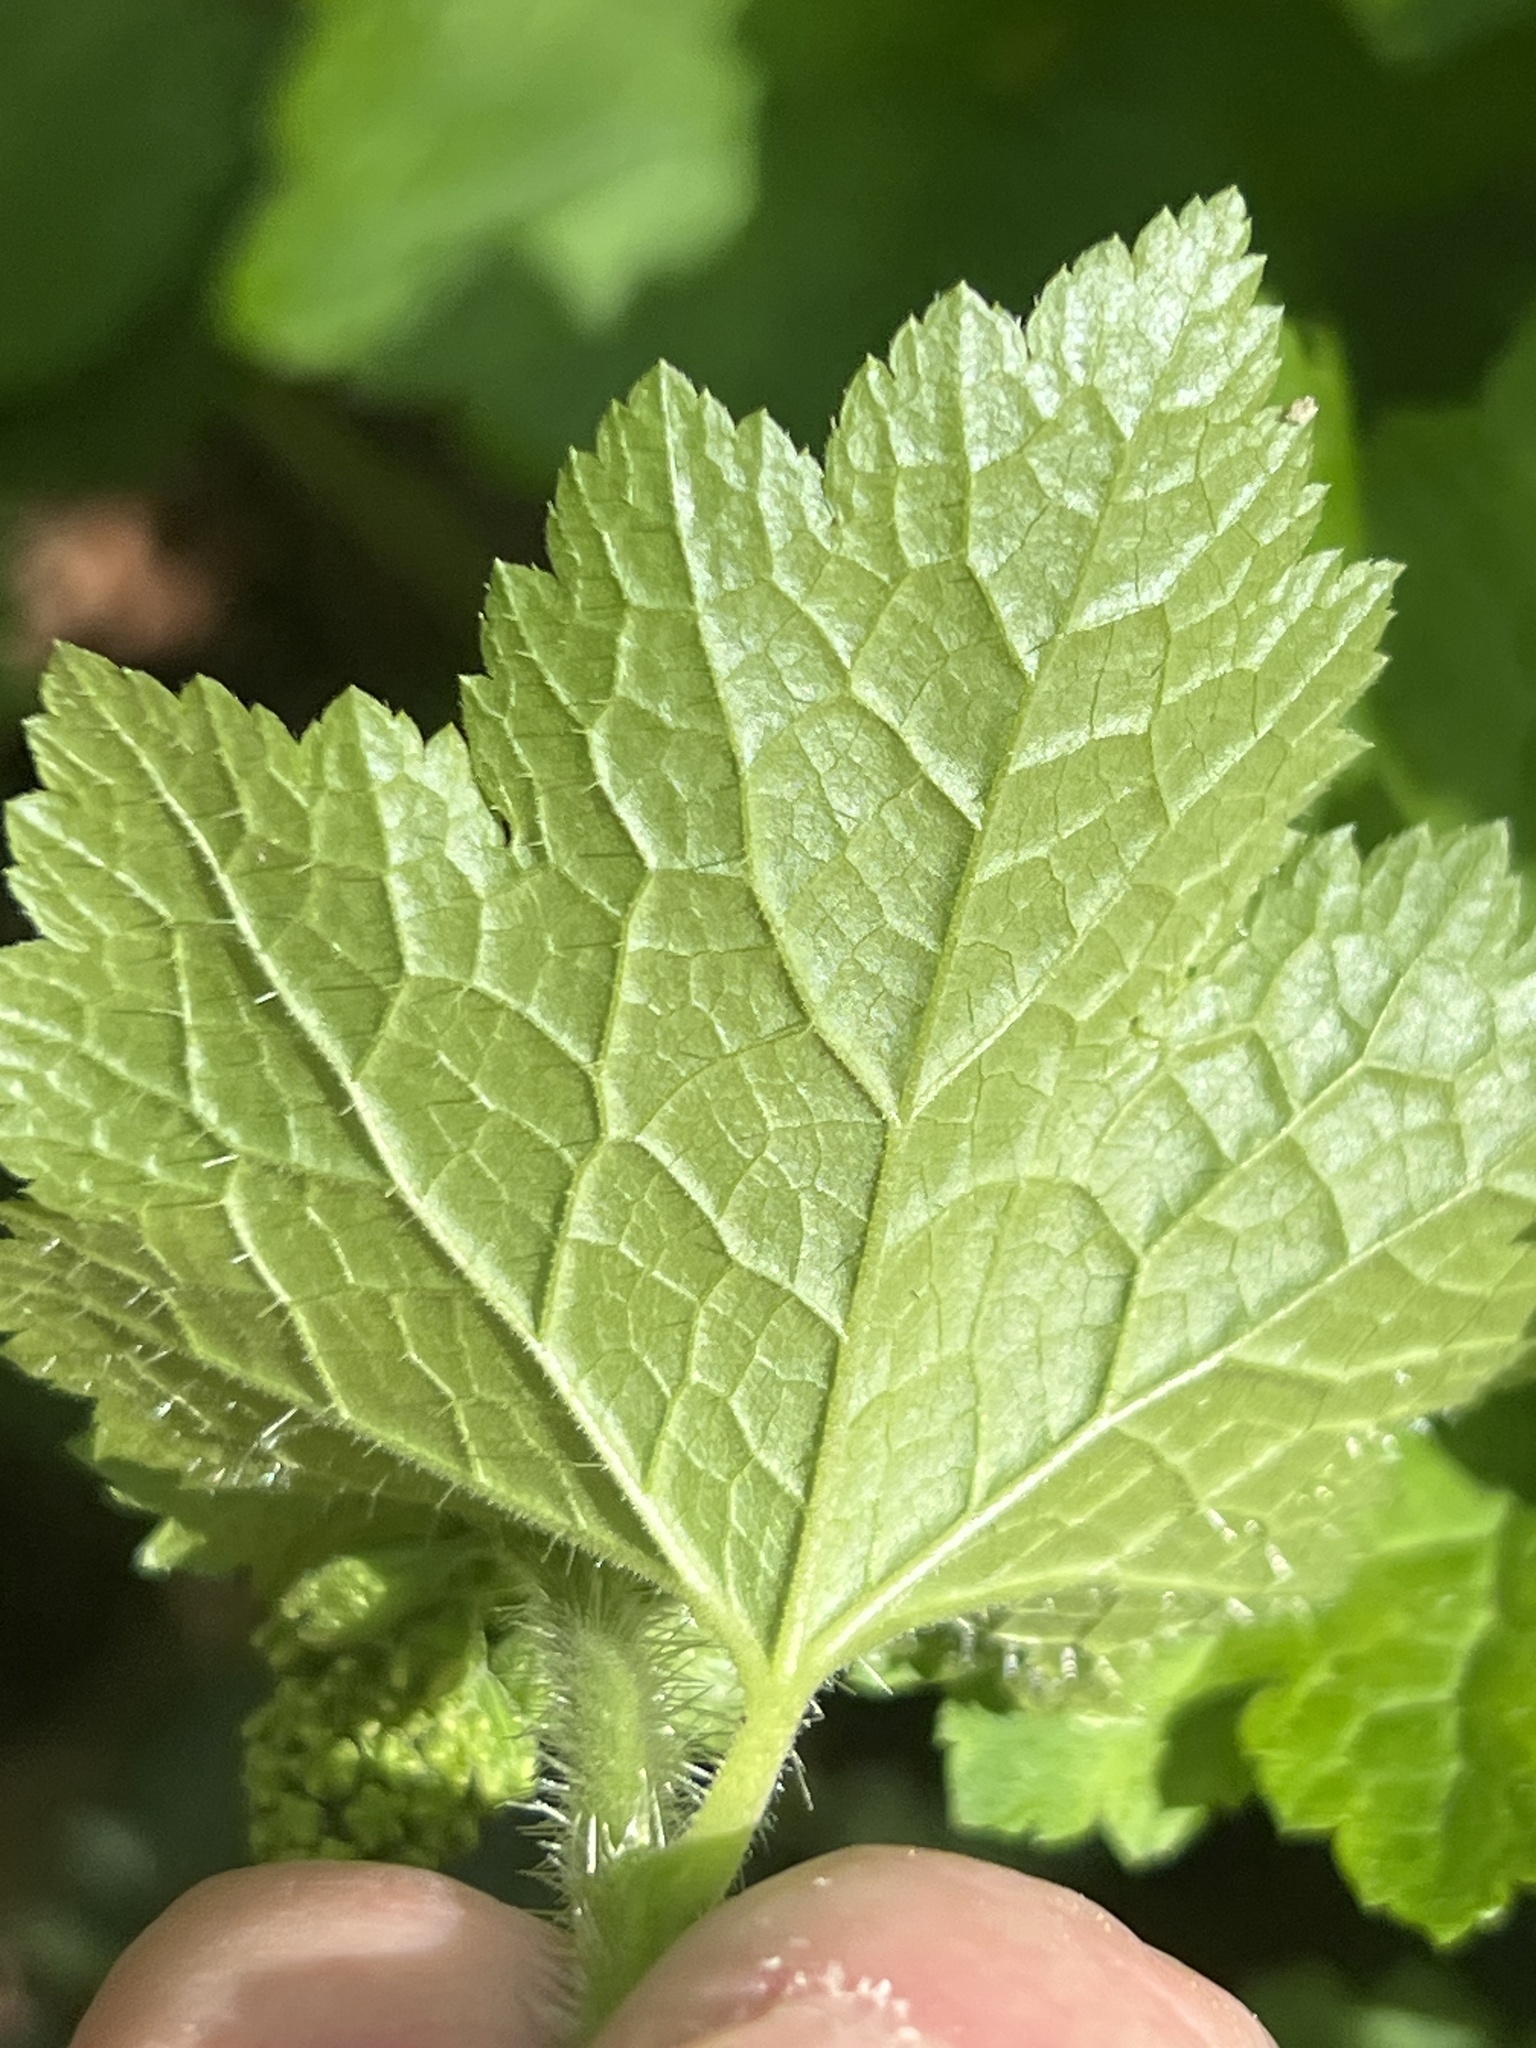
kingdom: Plantae
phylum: Tracheophyta
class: Magnoliopsida
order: Saxifragales
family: Saxifragaceae
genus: Tellima
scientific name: Tellima grandiflora
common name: Fringecups
